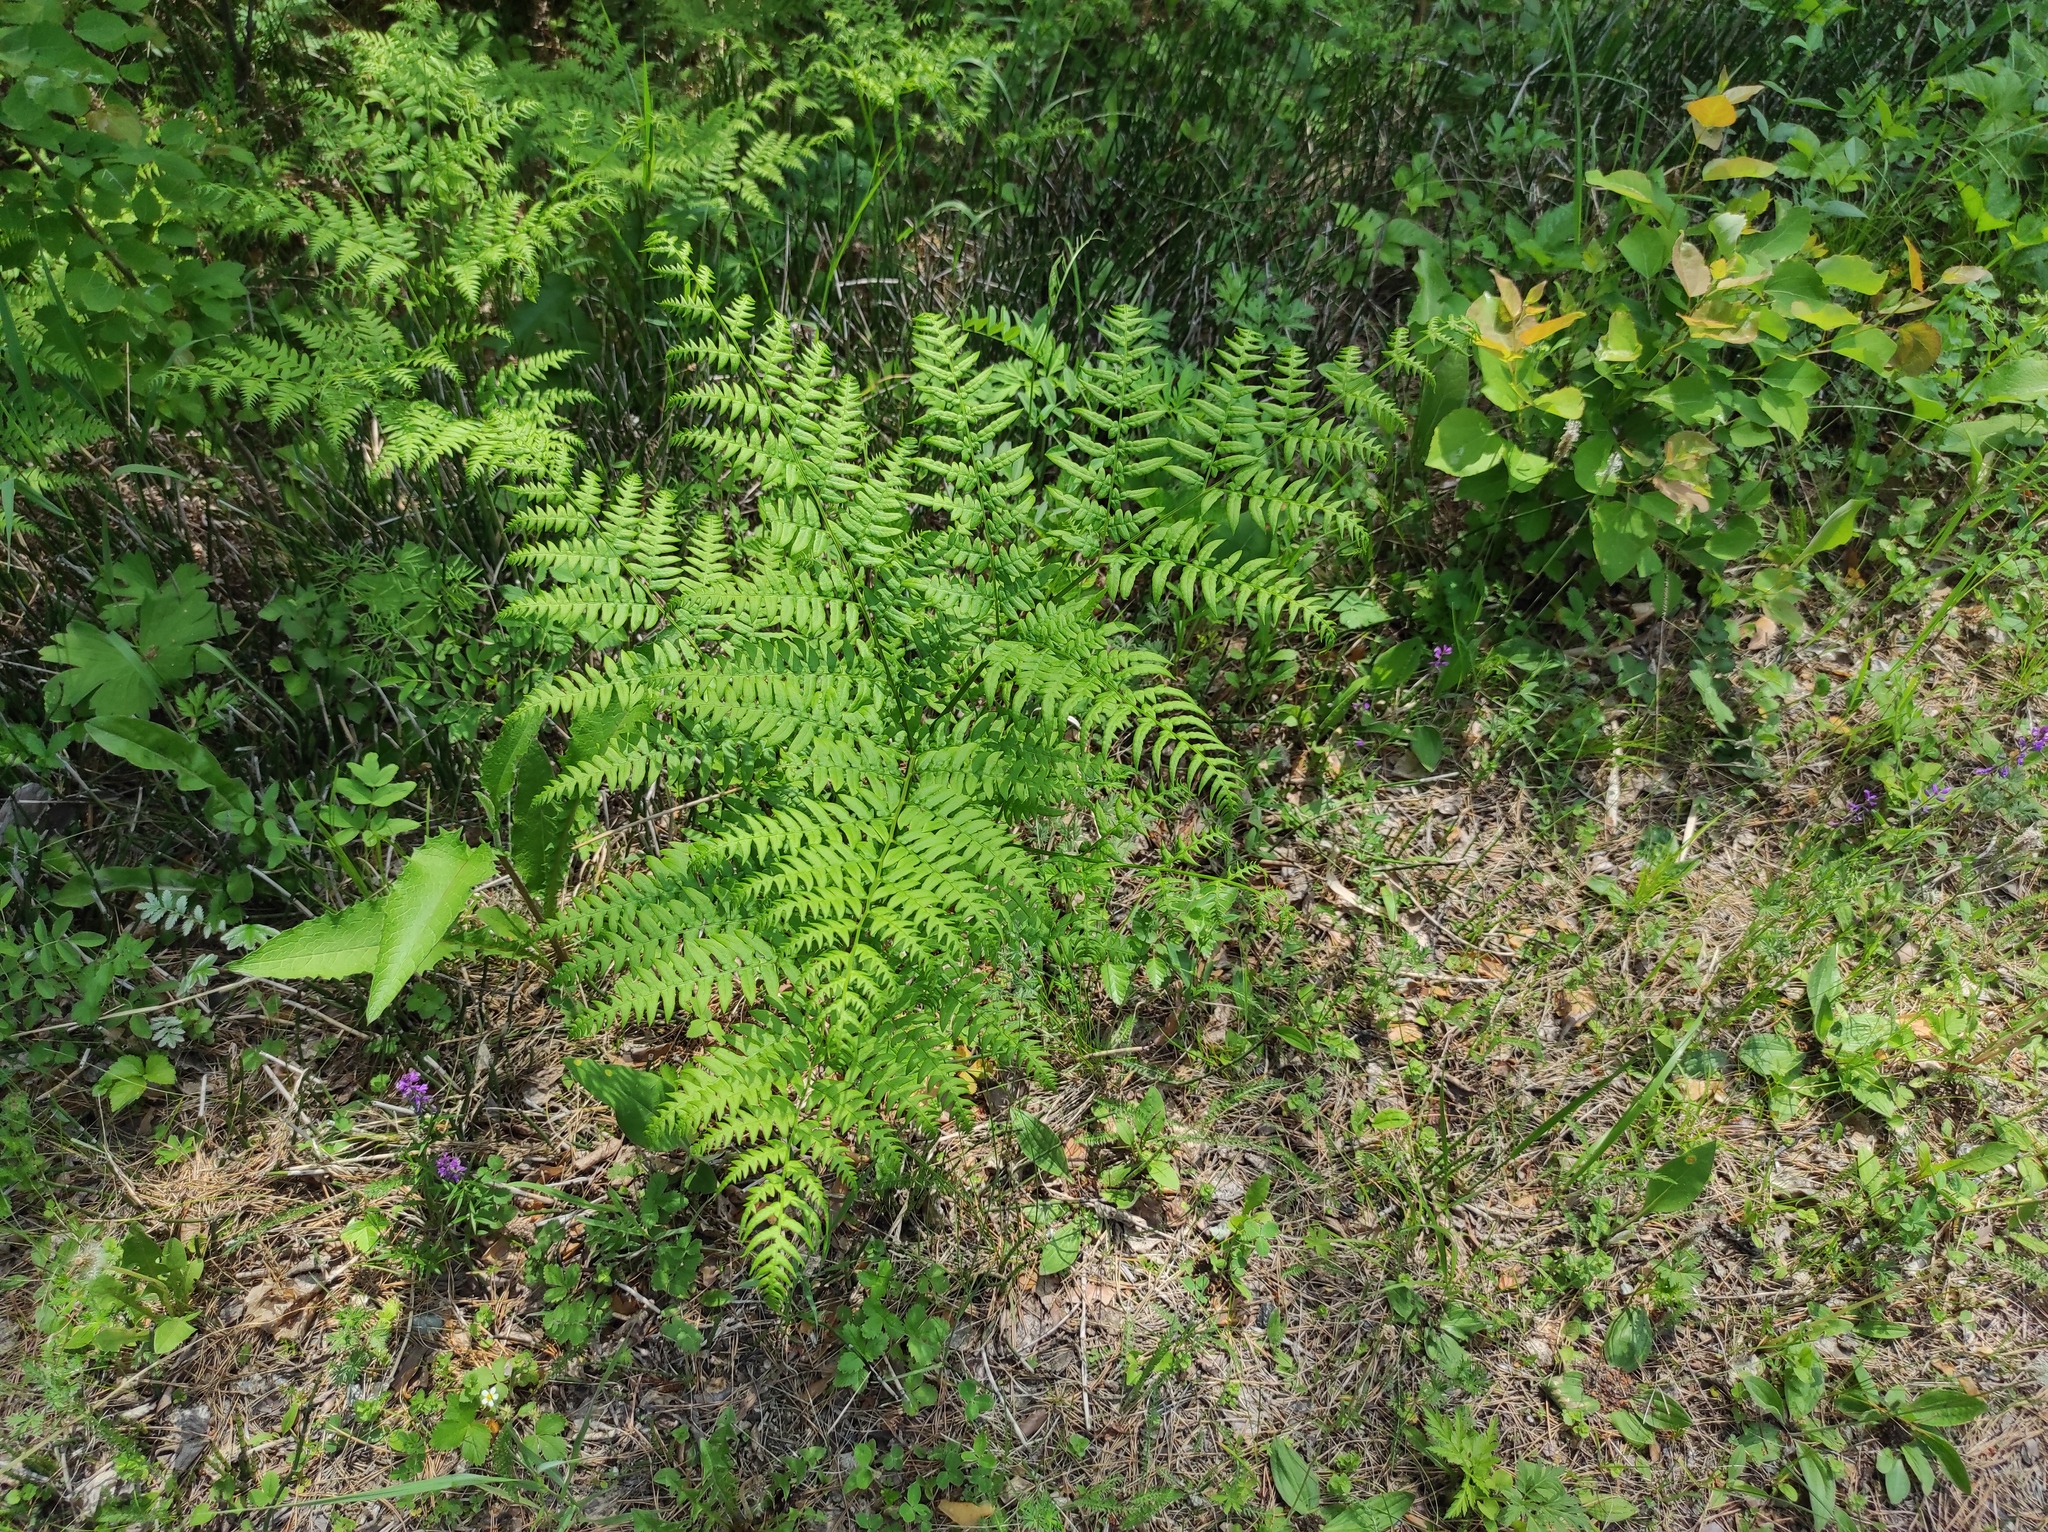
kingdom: Plantae
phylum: Tracheophyta
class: Polypodiopsida
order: Polypodiales
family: Dennstaedtiaceae
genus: Pteridium
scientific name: Pteridium aquilinum
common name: Bracken
